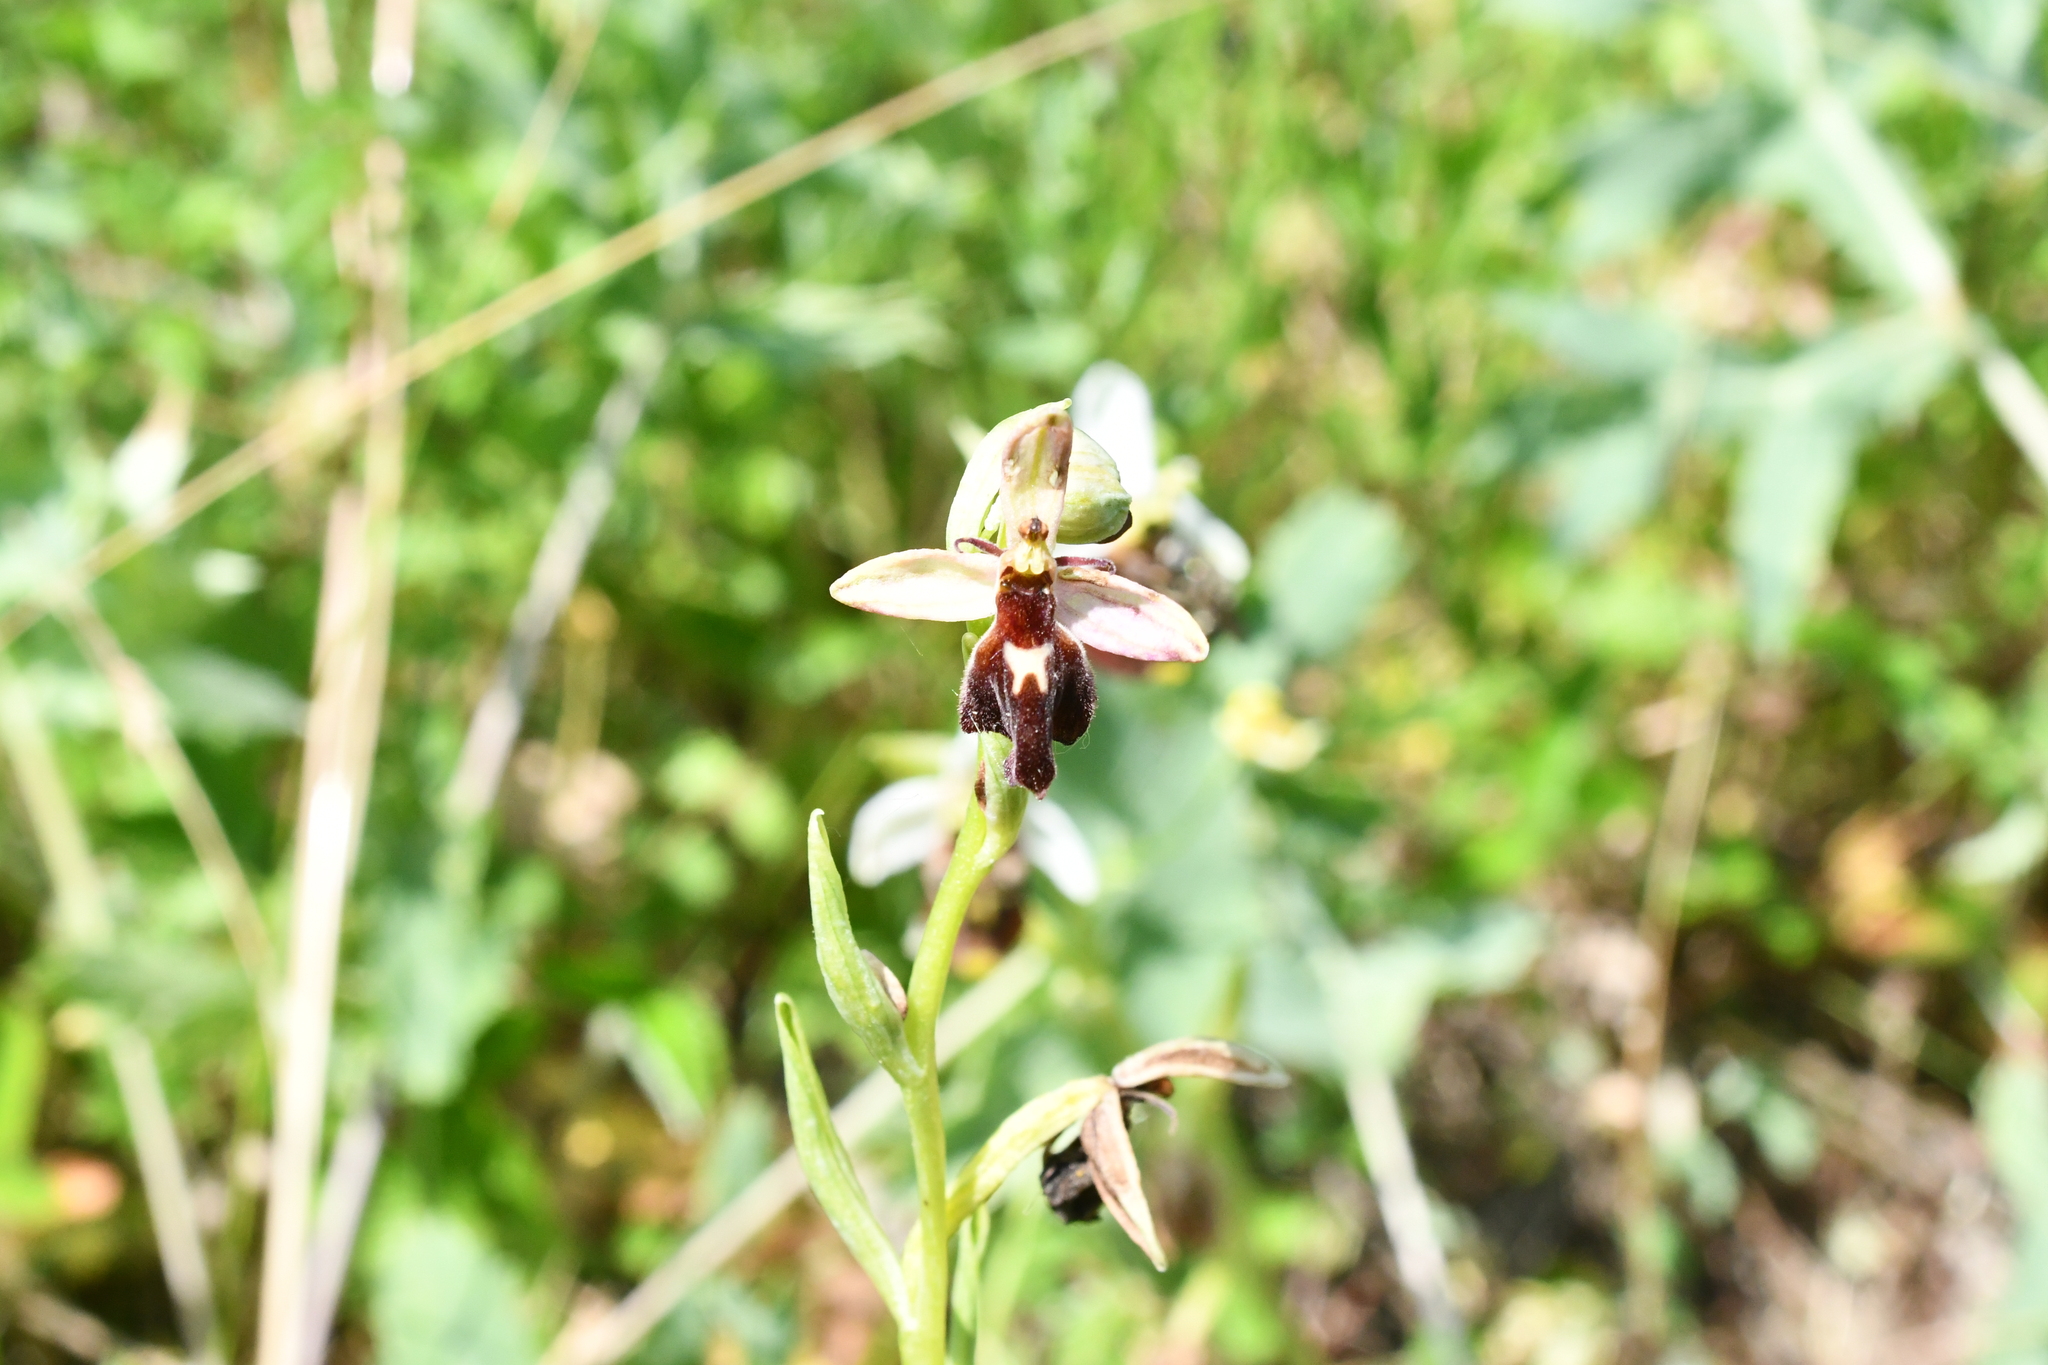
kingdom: Plantae
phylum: Tracheophyta
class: Liliopsida
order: Asparagales
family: Orchidaceae
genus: Ophrys
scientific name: Ophrys insectifera
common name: Fly orchid
